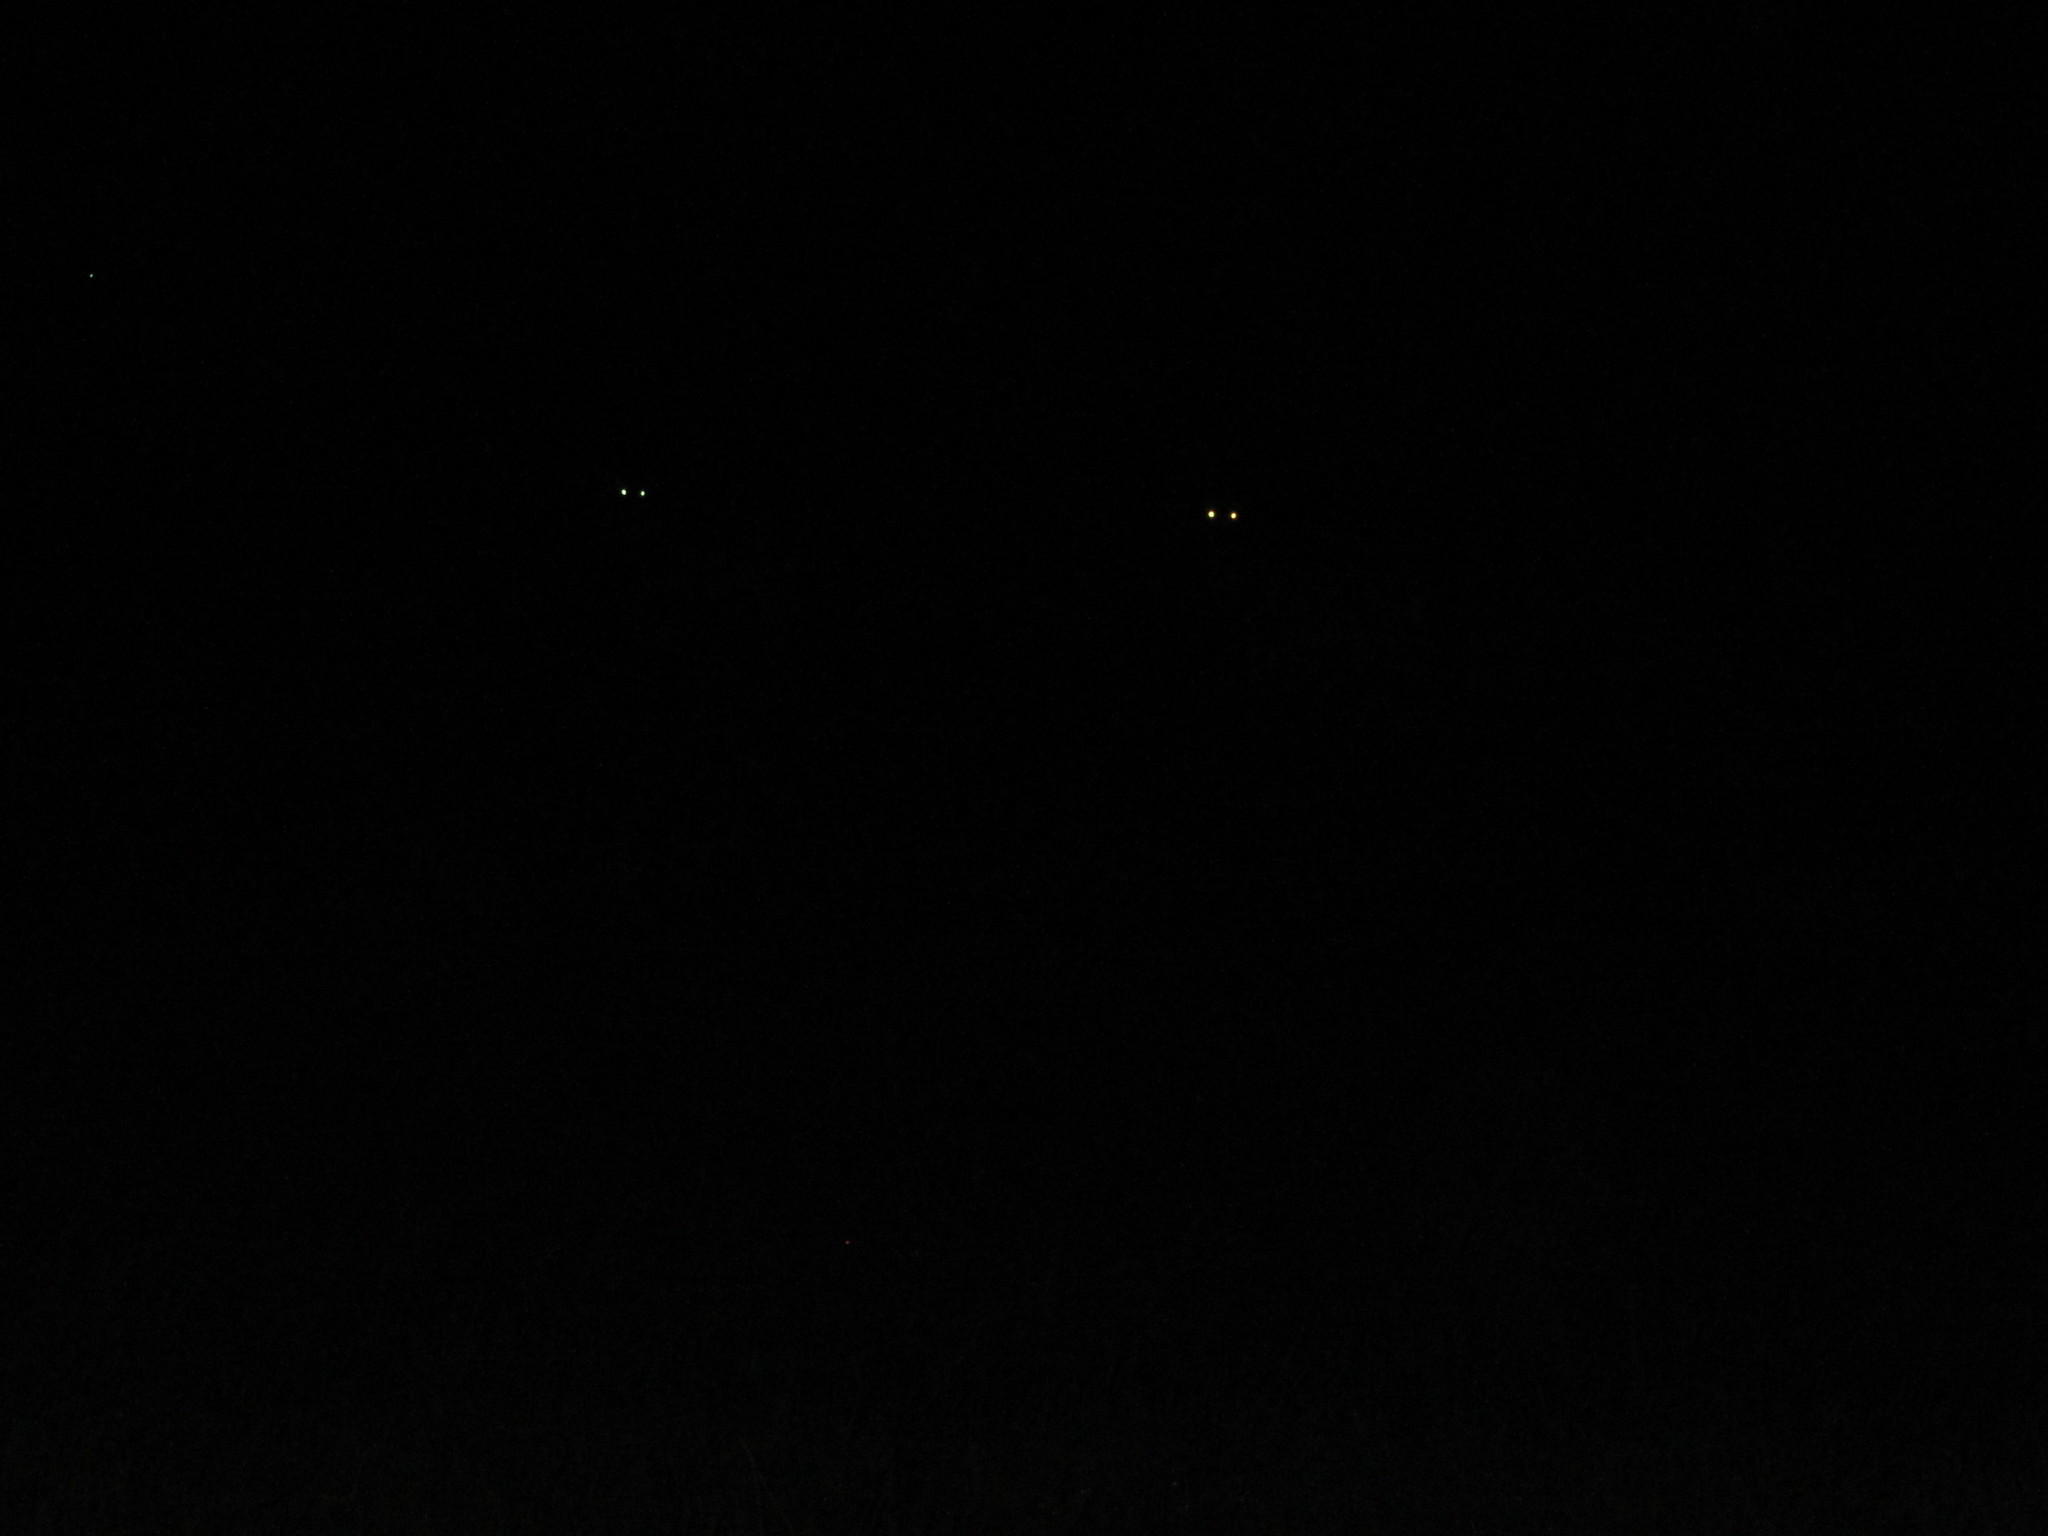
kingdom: Animalia
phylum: Chordata
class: Mammalia
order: Artiodactyla
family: Cervidae
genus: Odocoileus
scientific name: Odocoileus virginianus
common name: White-tailed deer
